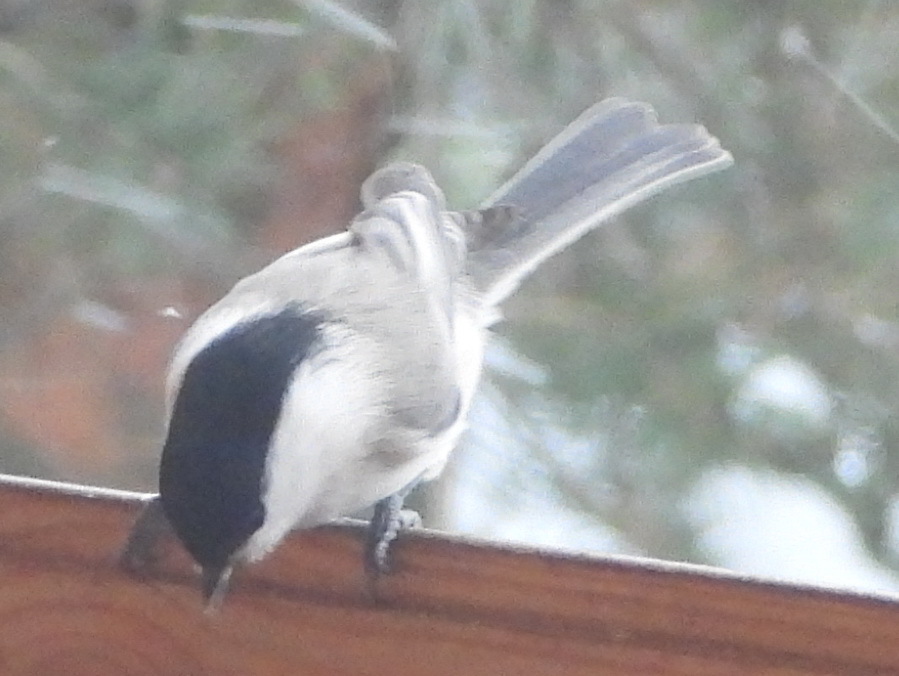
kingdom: Animalia
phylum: Chordata
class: Aves
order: Passeriformes
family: Paridae
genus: Poecile
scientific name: Poecile montanus
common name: Willow tit
